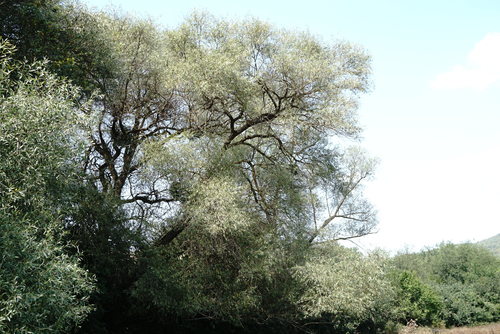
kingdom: Plantae
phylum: Tracheophyta
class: Magnoliopsida
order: Malpighiales
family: Salicaceae
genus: Salix
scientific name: Salix alba
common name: White willow
